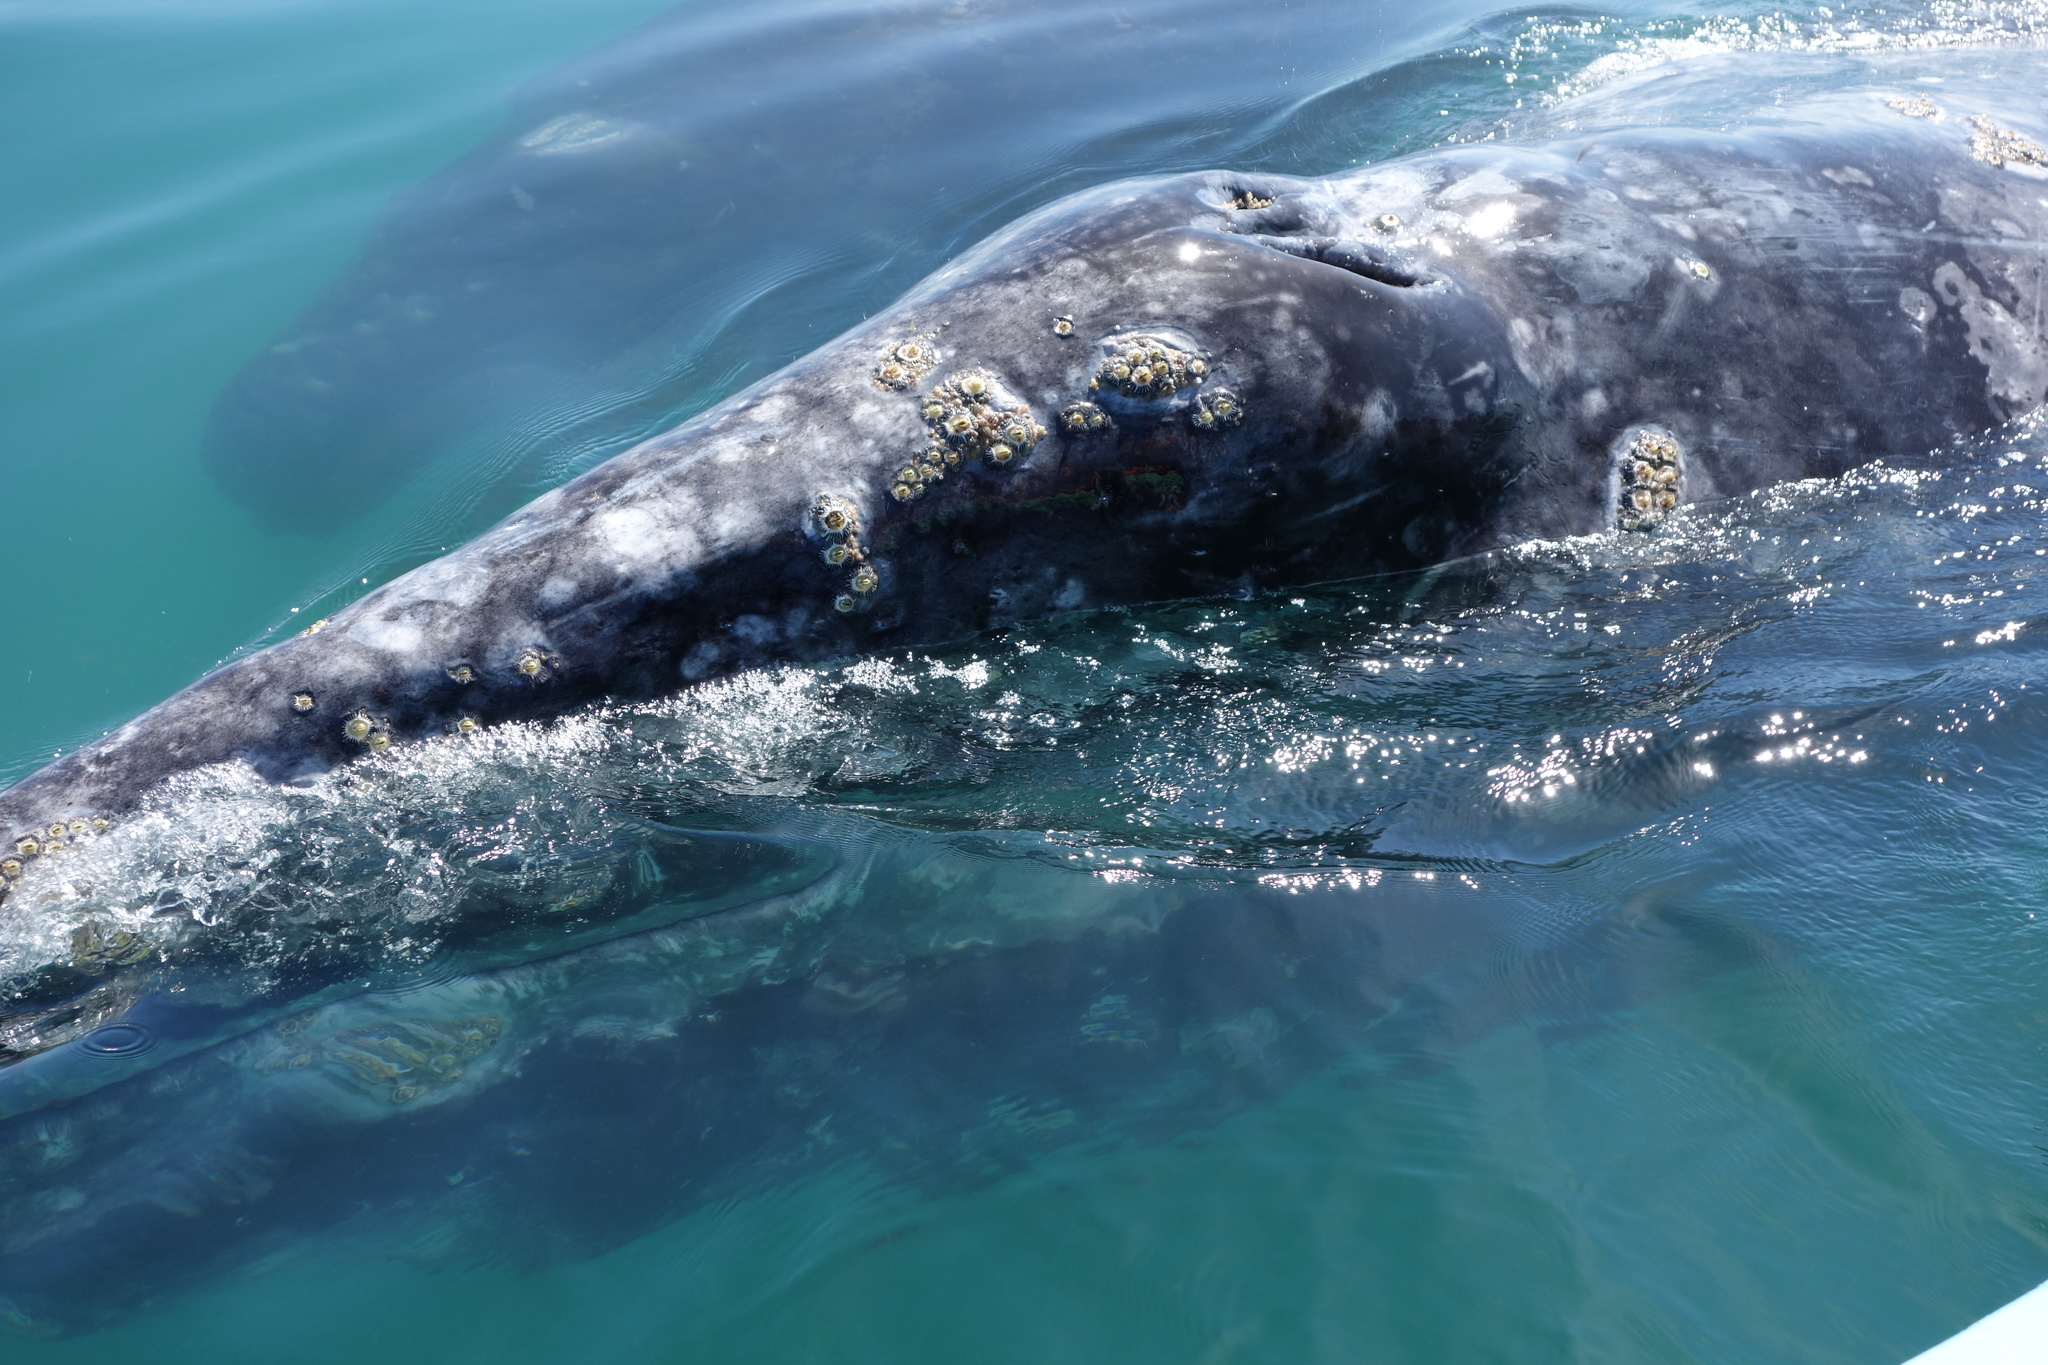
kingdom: Animalia
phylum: Chordata
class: Mammalia
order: Cetacea
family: Eschrichtiidae
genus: Eschrichtius
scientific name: Eschrichtius robustus
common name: Gray whale
